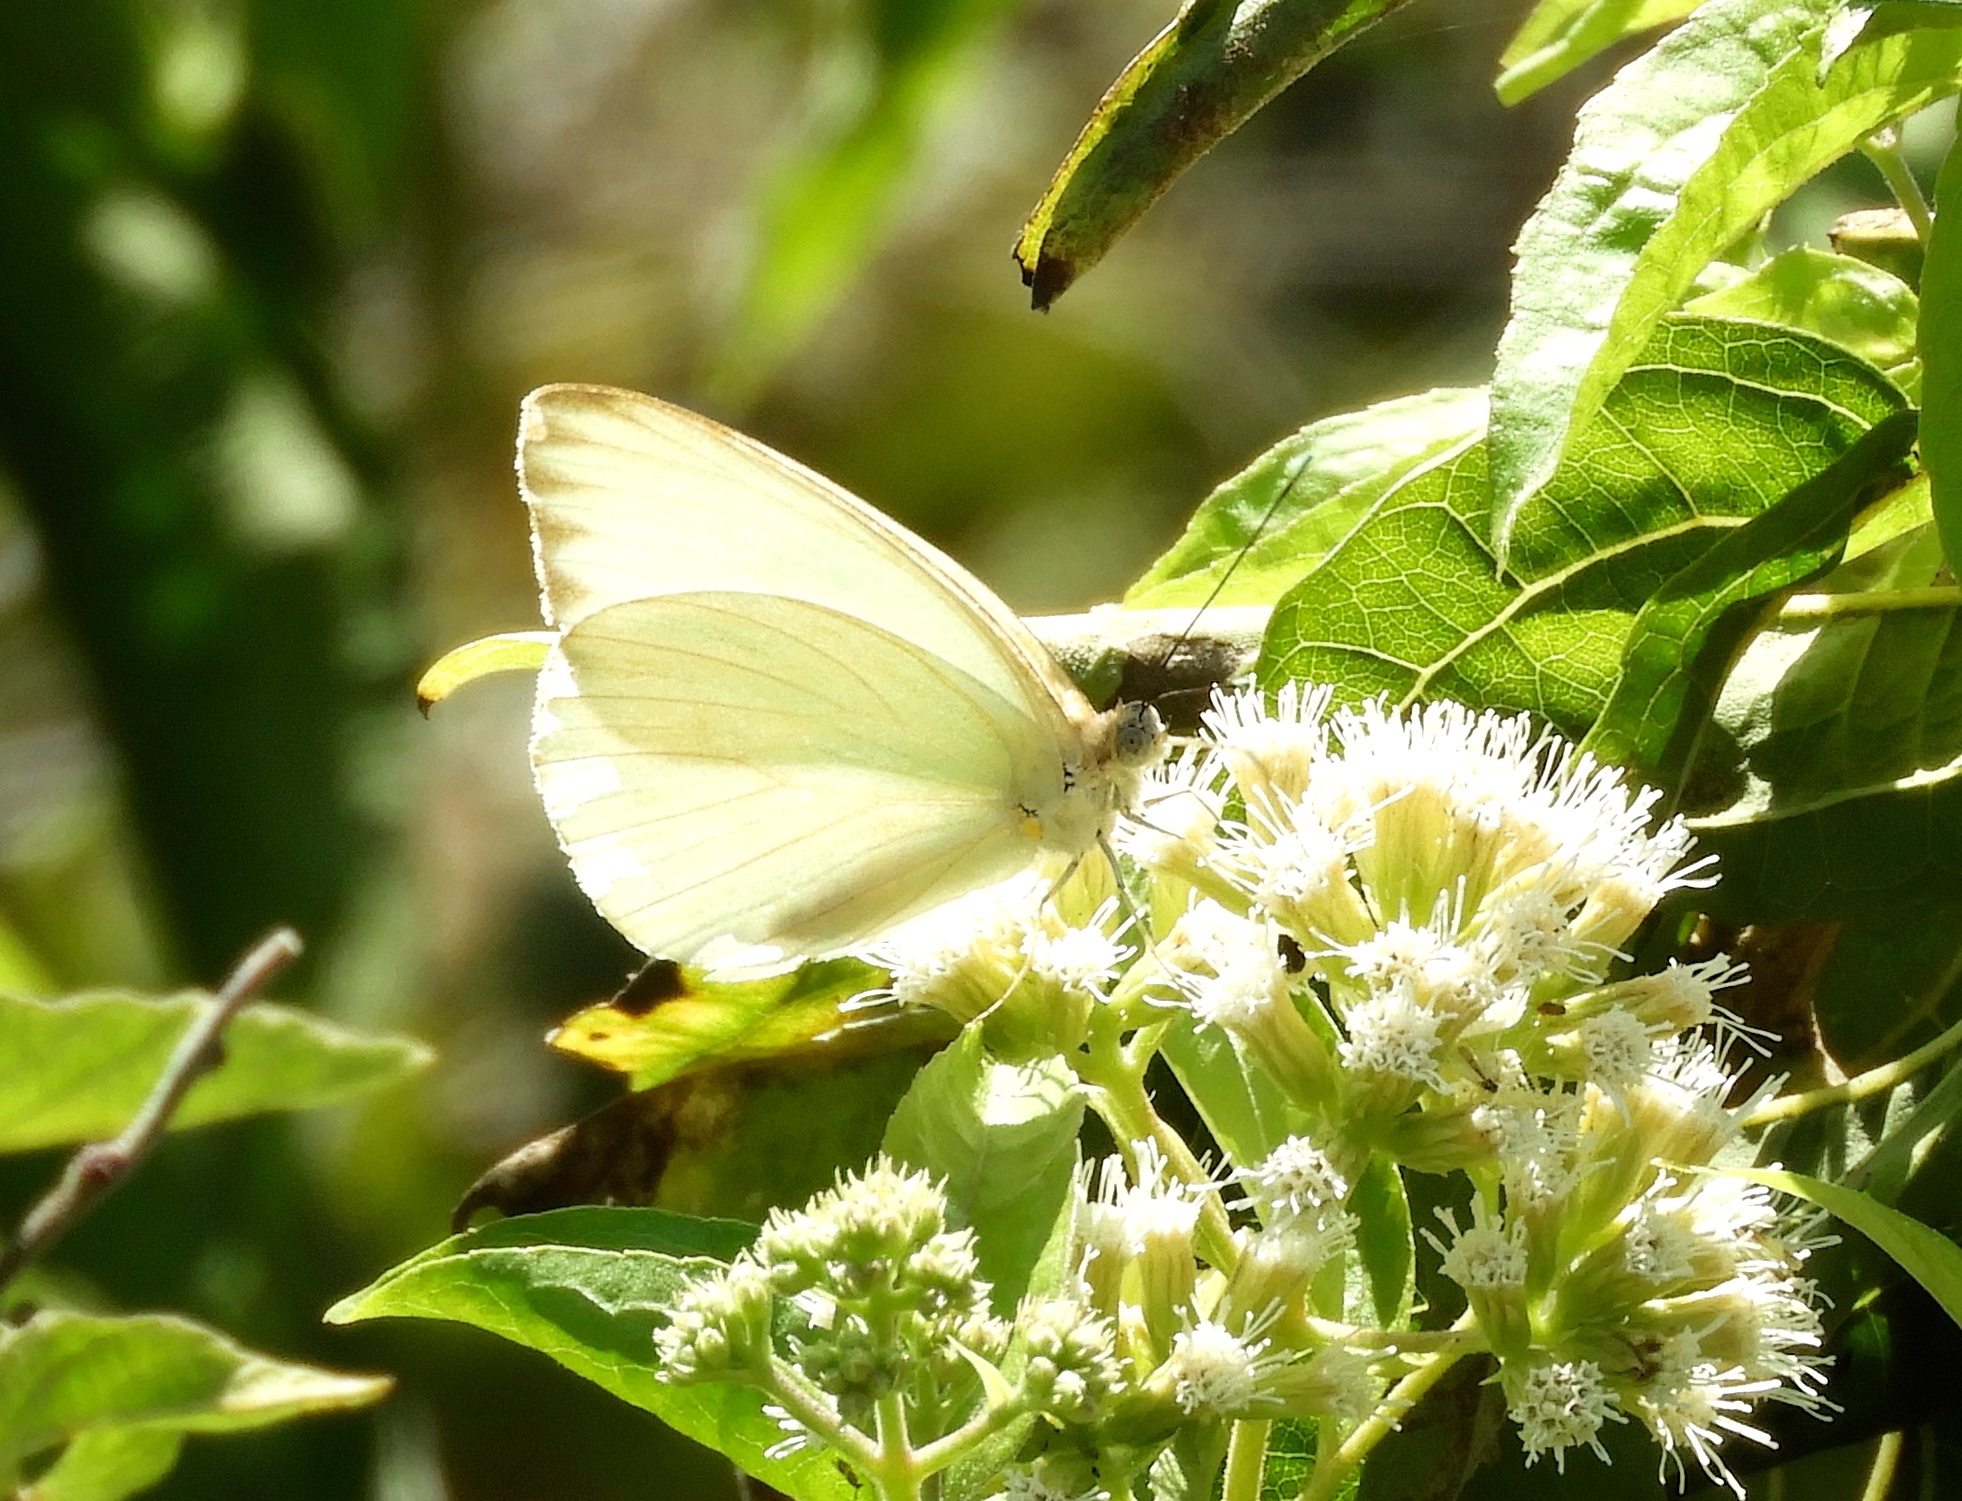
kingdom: Animalia
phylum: Arthropoda
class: Insecta
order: Lepidoptera
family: Pieridae
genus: Ascia
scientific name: Ascia monuste
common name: Great southern white
